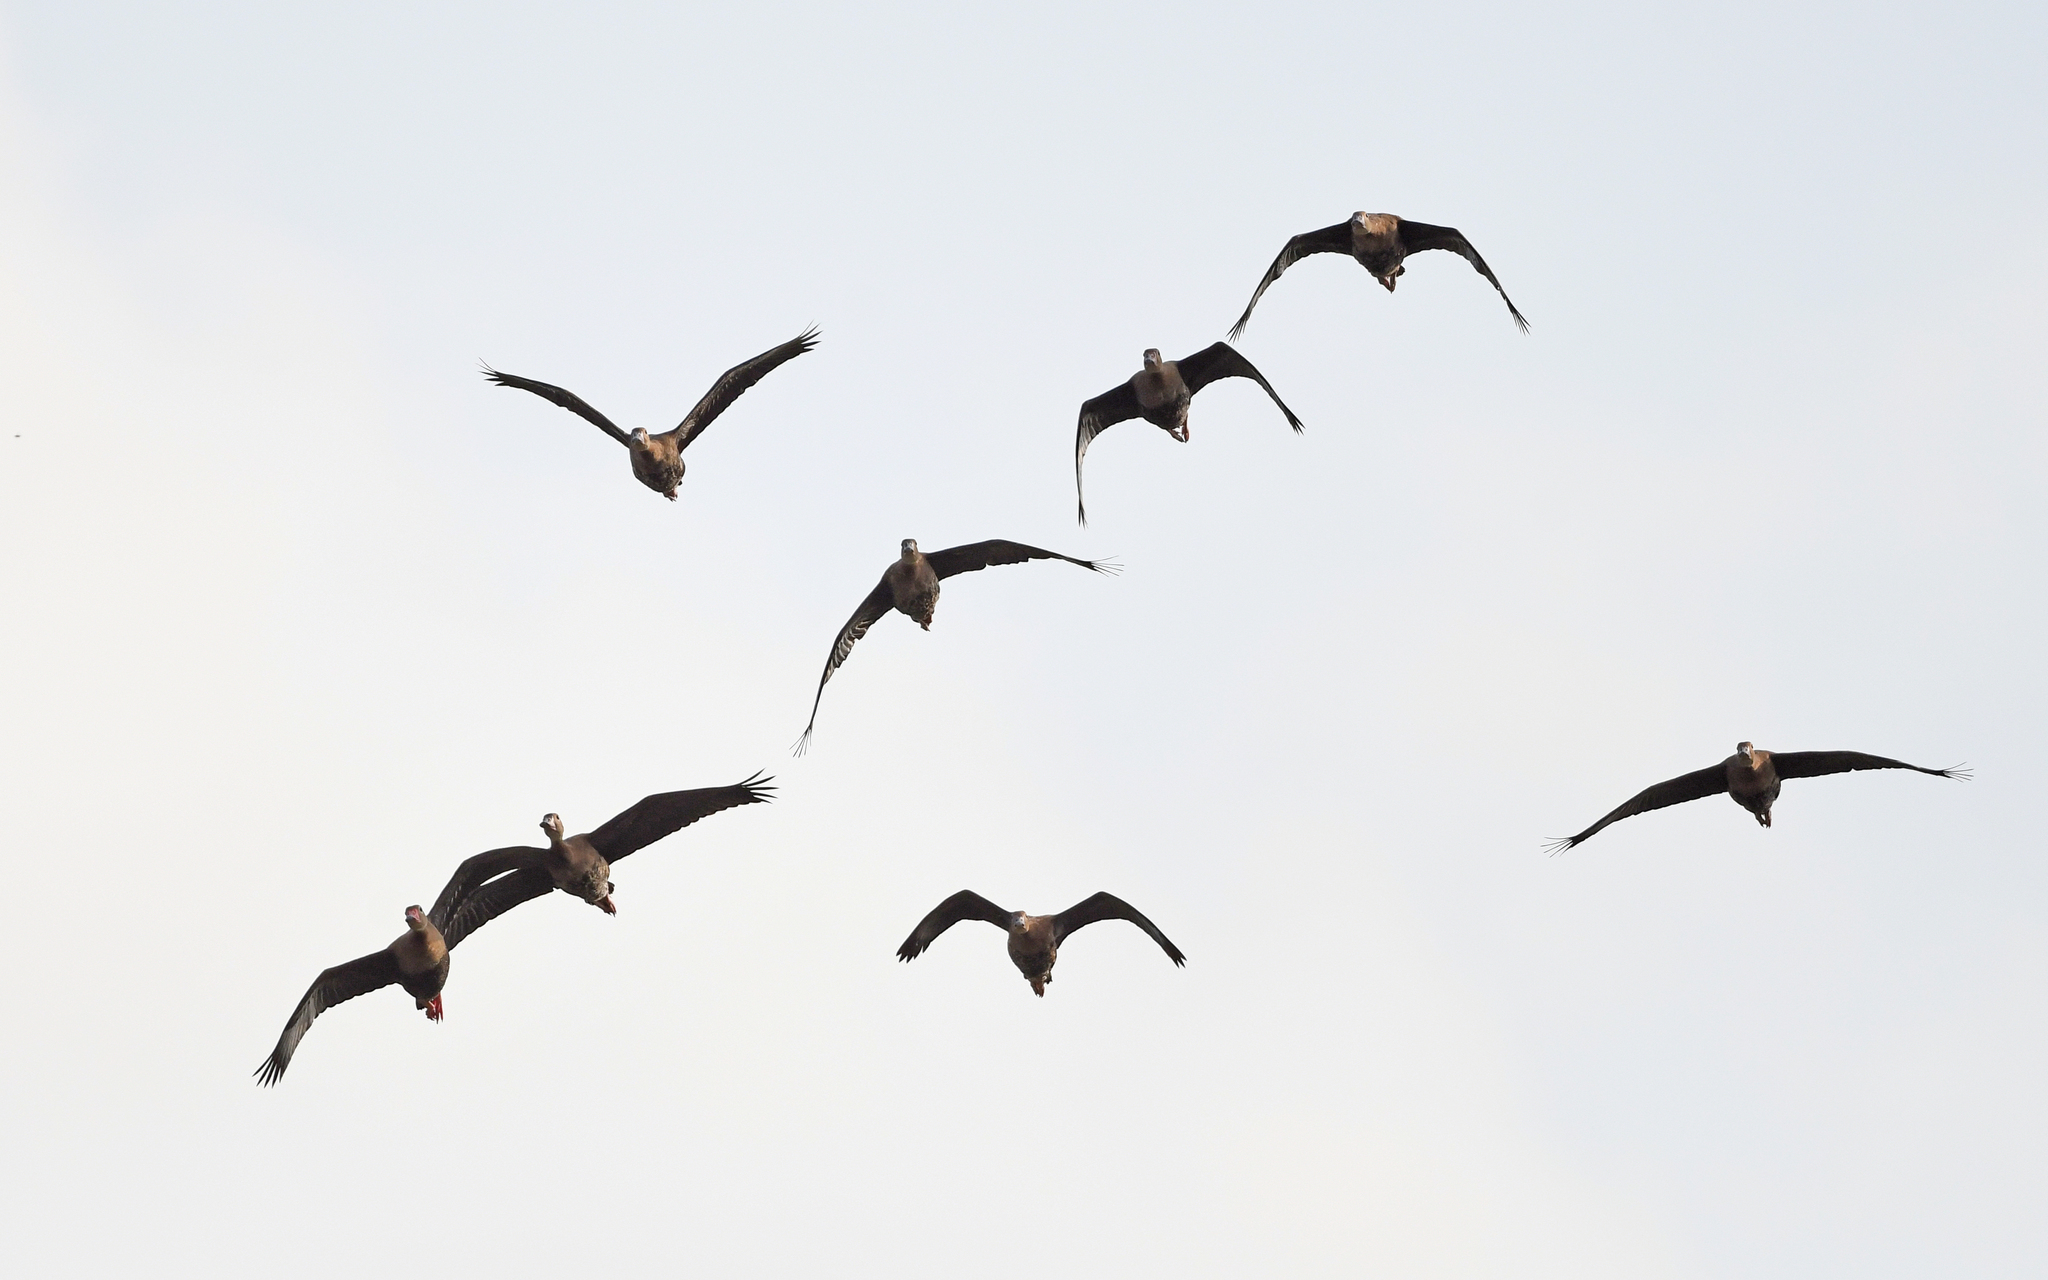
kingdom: Animalia
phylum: Chordata
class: Aves
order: Anseriformes
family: Anatidae
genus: Dendrocygna
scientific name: Dendrocygna autumnalis
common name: Black-bellied whistling duck
